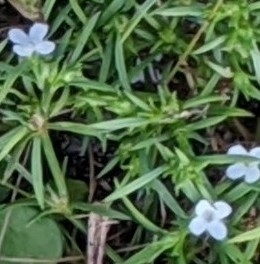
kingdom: Plantae
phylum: Tracheophyta
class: Magnoliopsida
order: Lamiales
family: Tetrachondraceae
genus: Polypremum
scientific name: Polypremum procumbens
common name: Juniper-leaf
